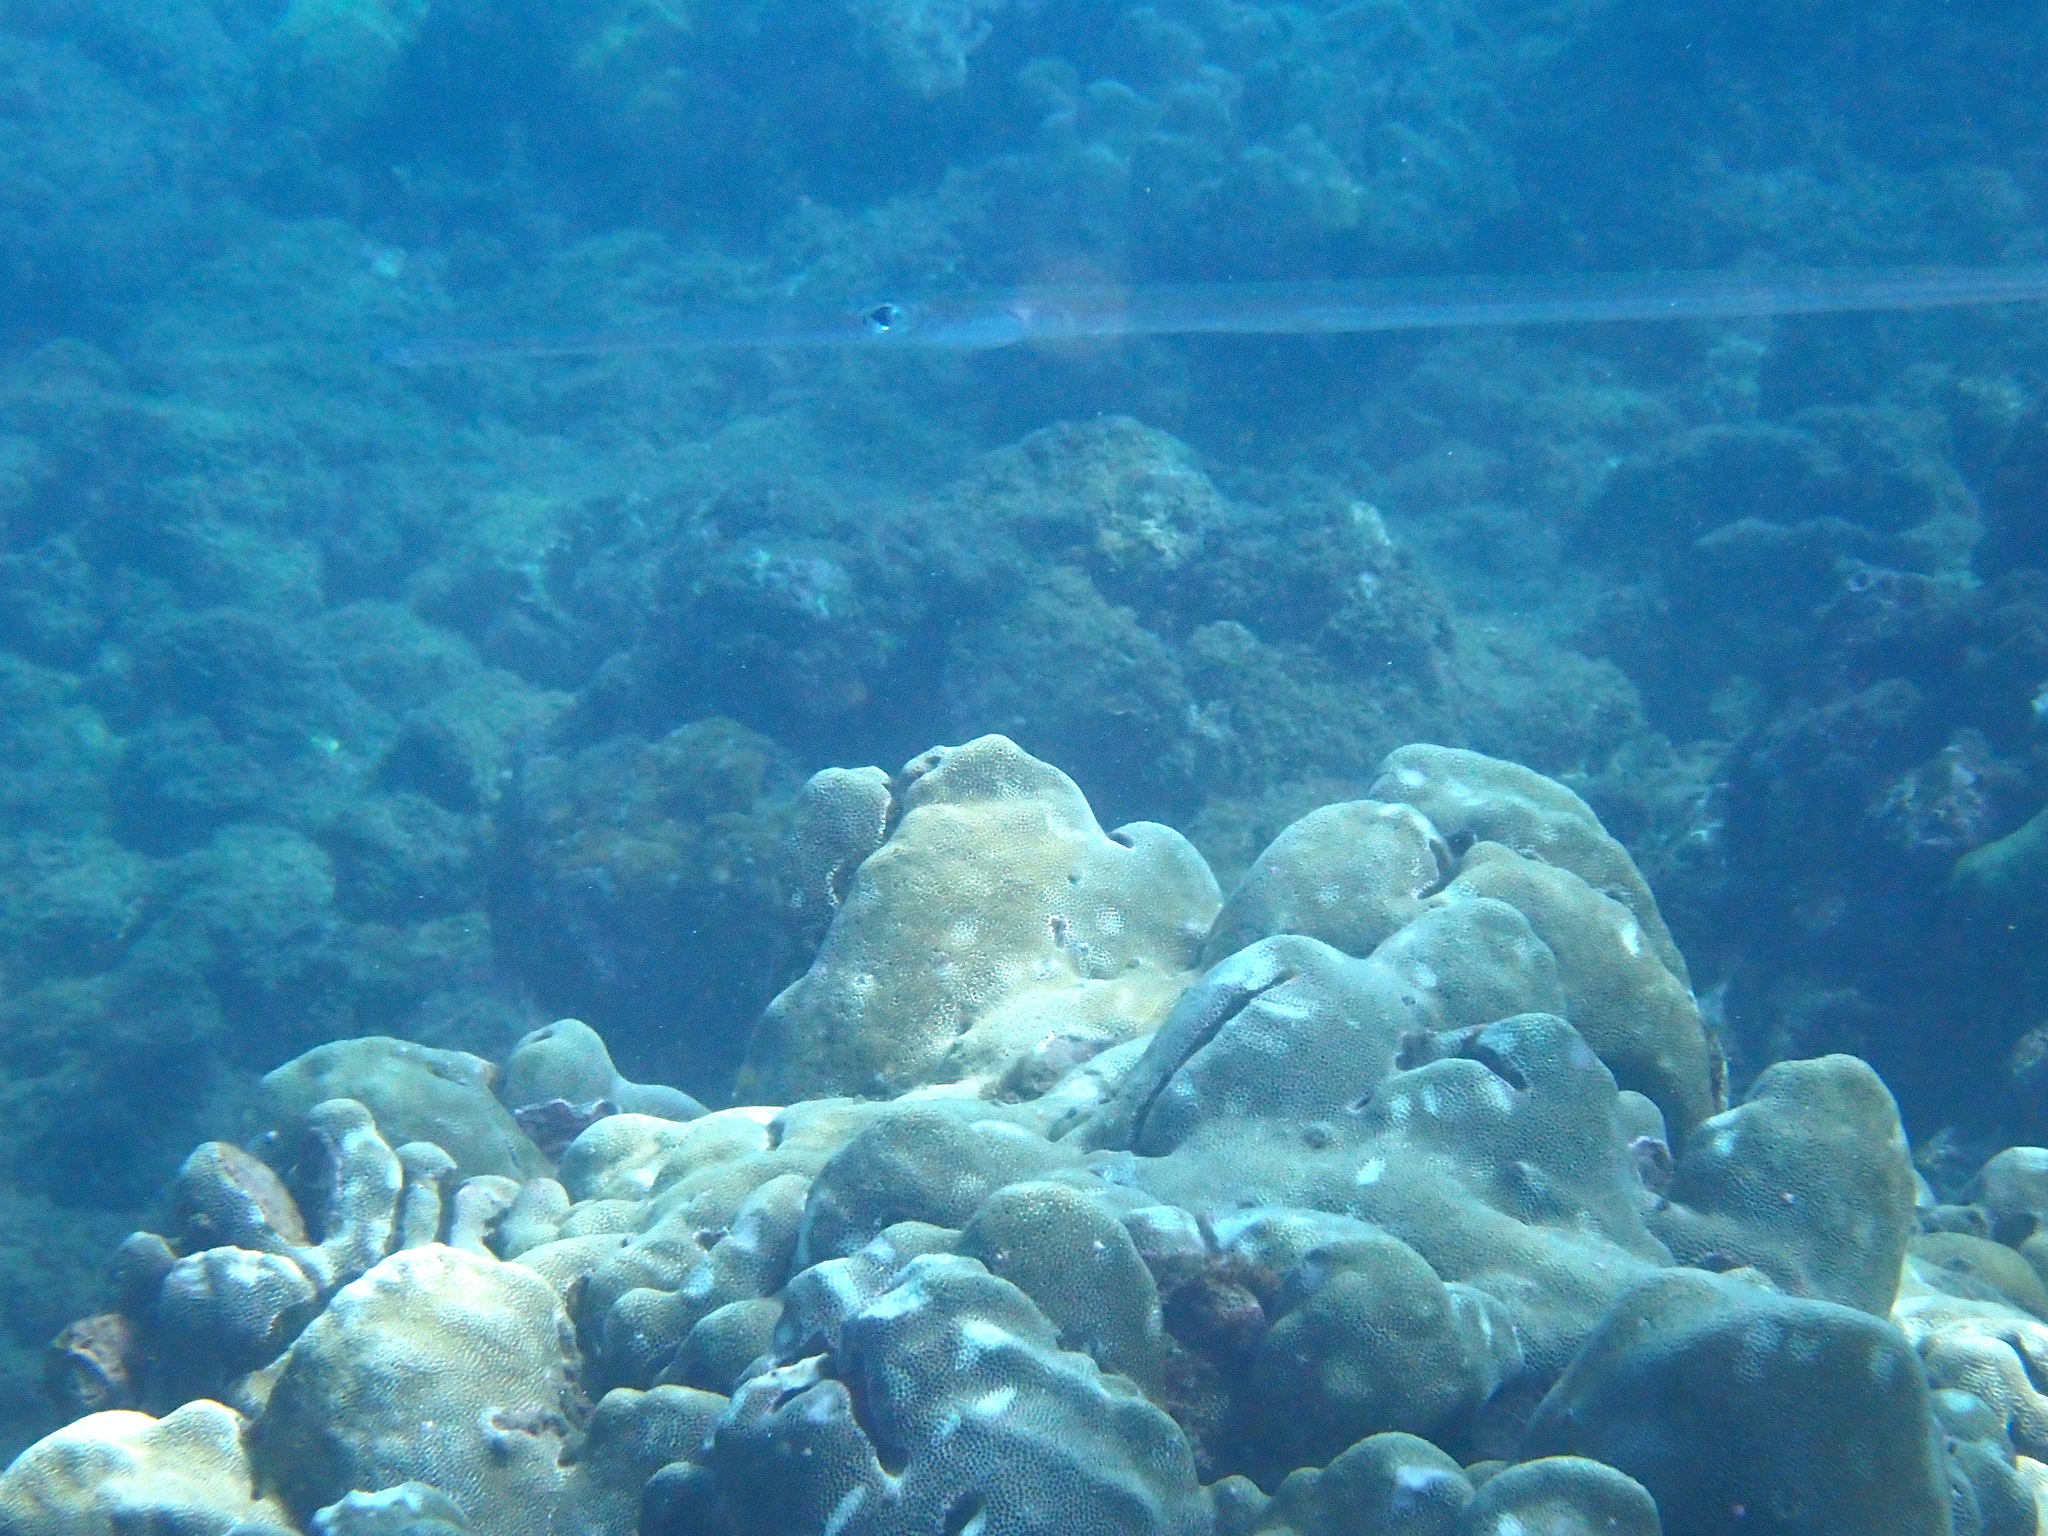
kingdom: Animalia
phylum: Chordata
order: Syngnathiformes
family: Fistulariidae
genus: Fistularia
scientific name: Fistularia commersonii
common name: Bluespotted cornetfish
